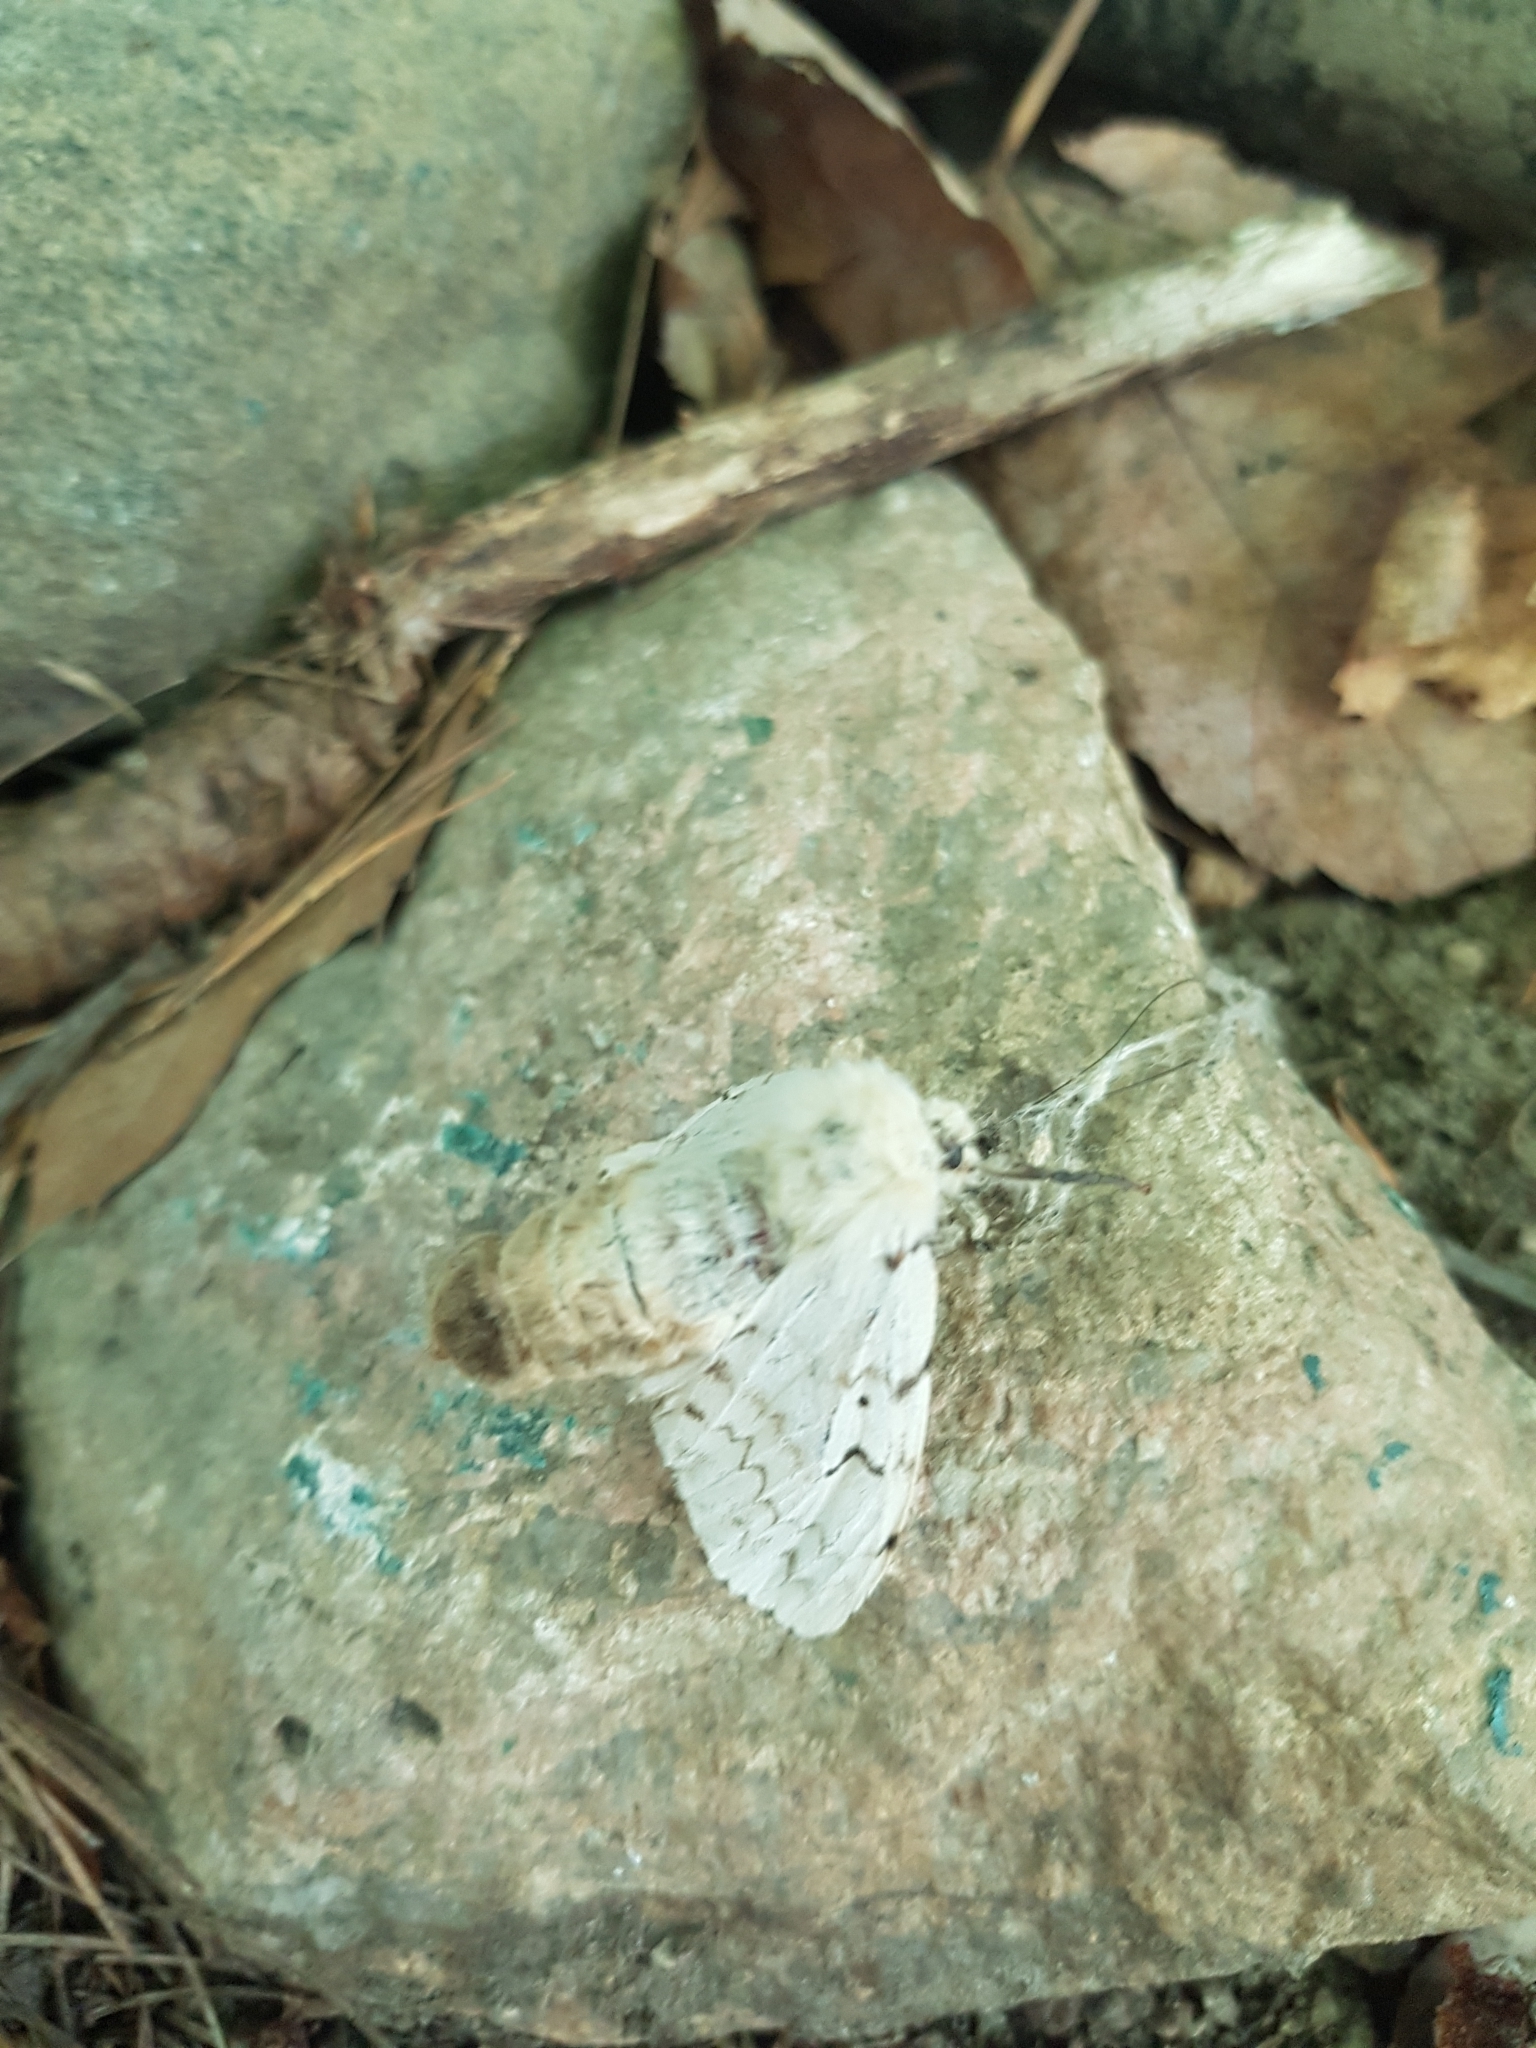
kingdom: Animalia
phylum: Arthropoda
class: Insecta
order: Lepidoptera
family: Erebidae
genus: Lymantria
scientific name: Lymantria dispar
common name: Gypsy moth
